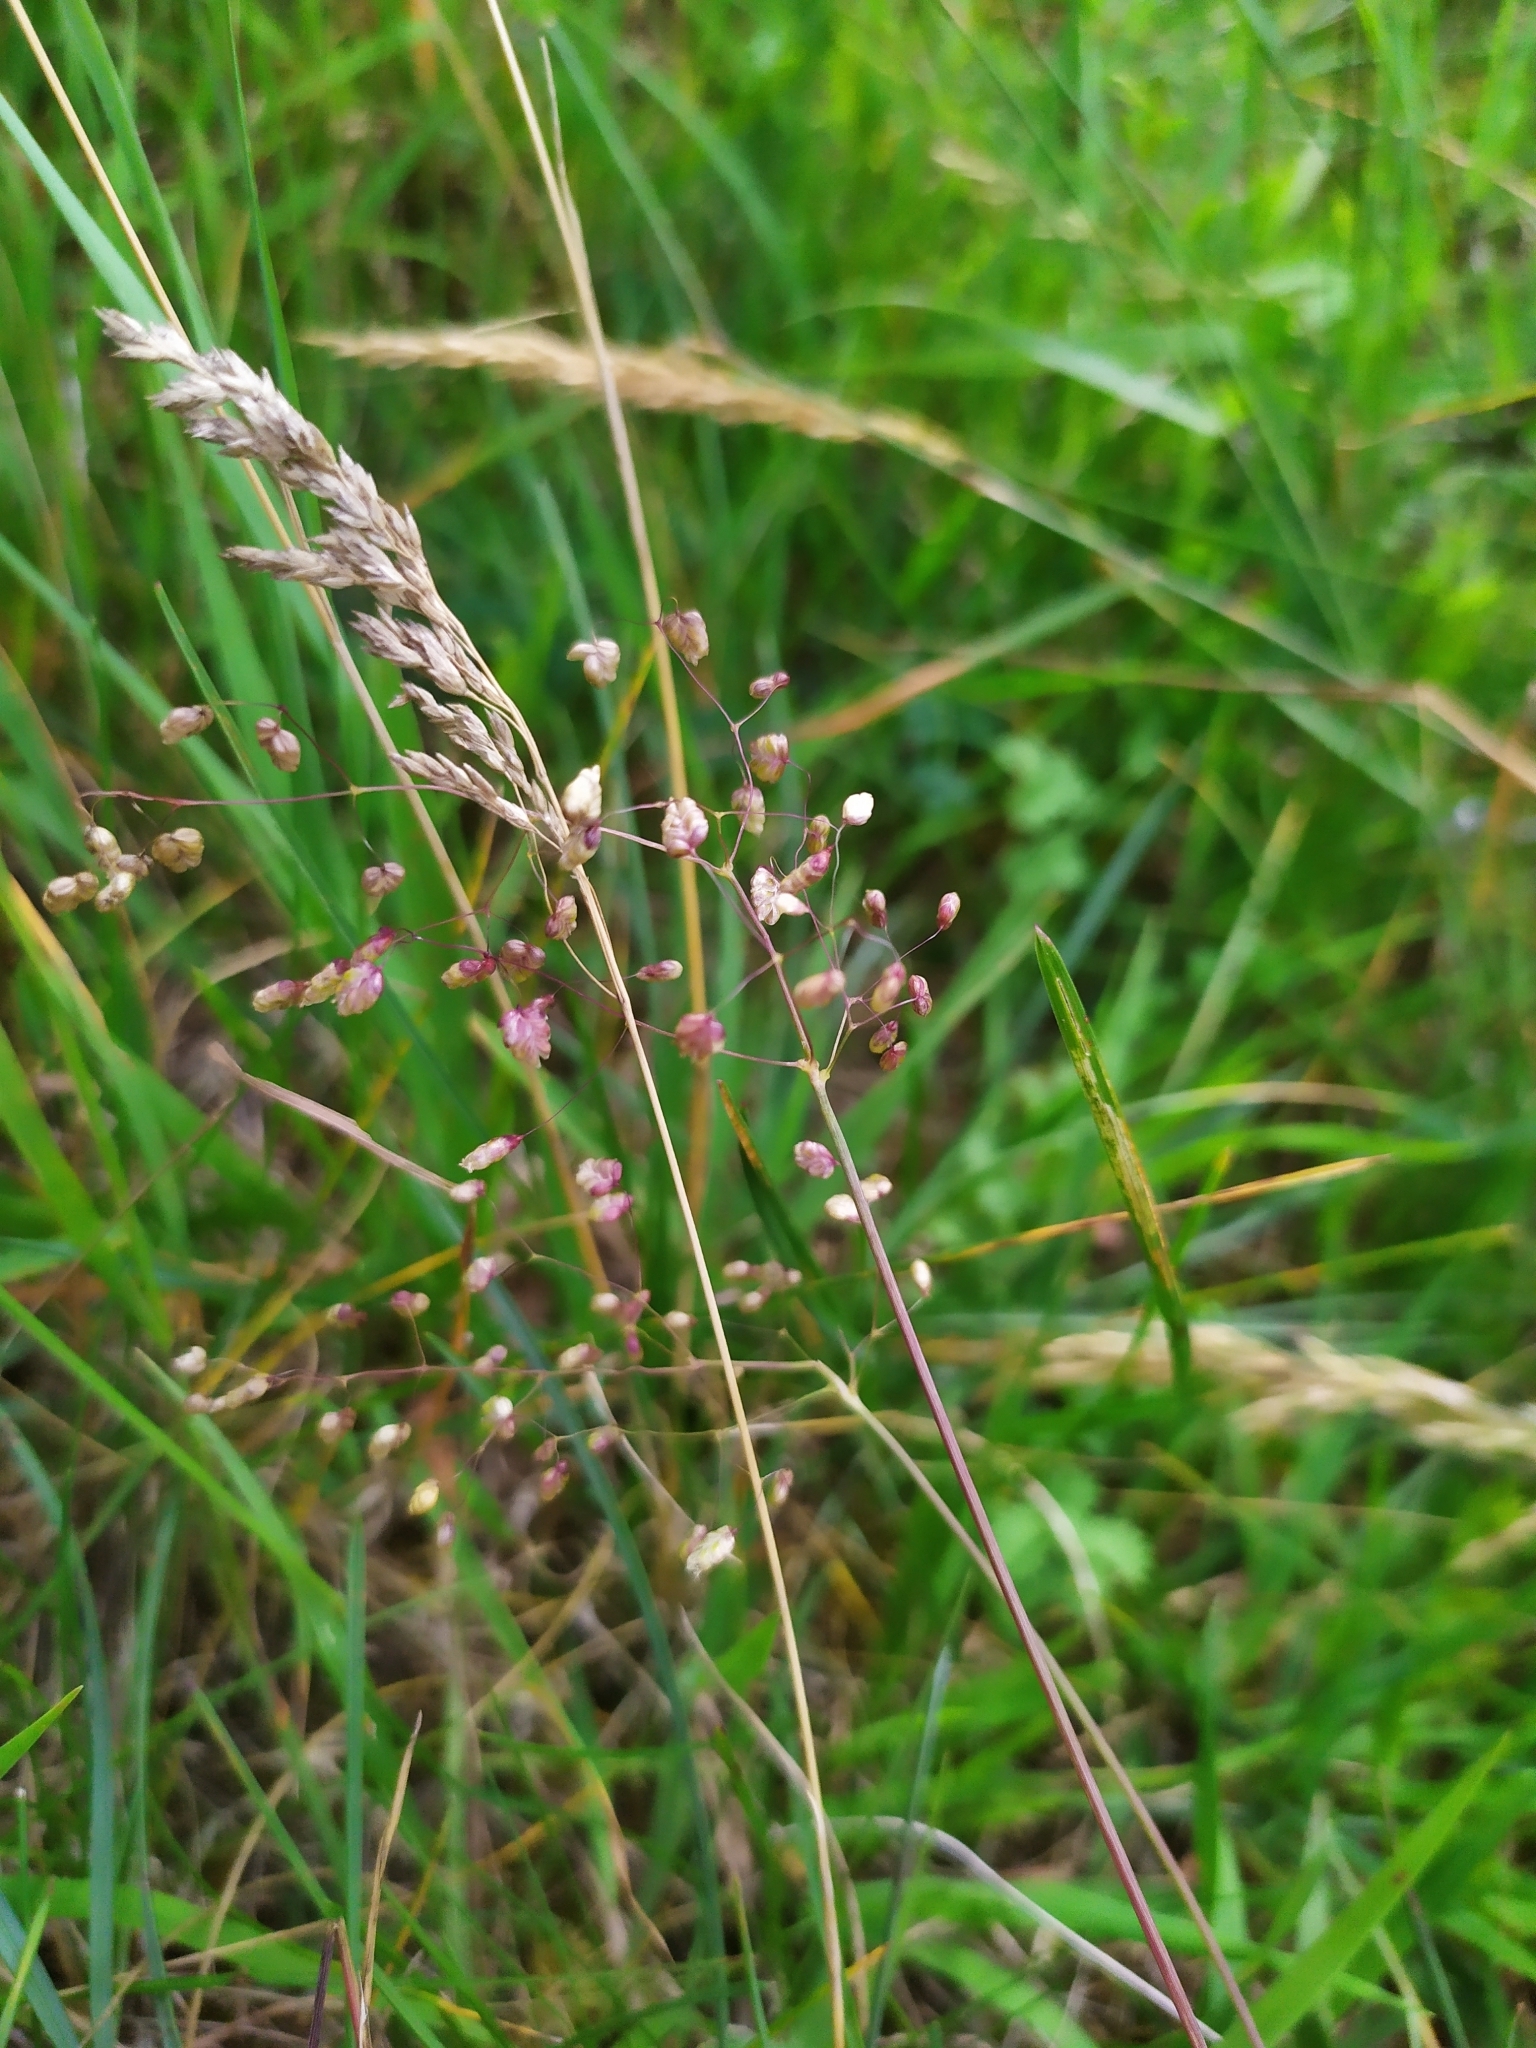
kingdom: Plantae
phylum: Tracheophyta
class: Liliopsida
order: Poales
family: Poaceae
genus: Briza
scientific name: Briza media
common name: Quaking grass
